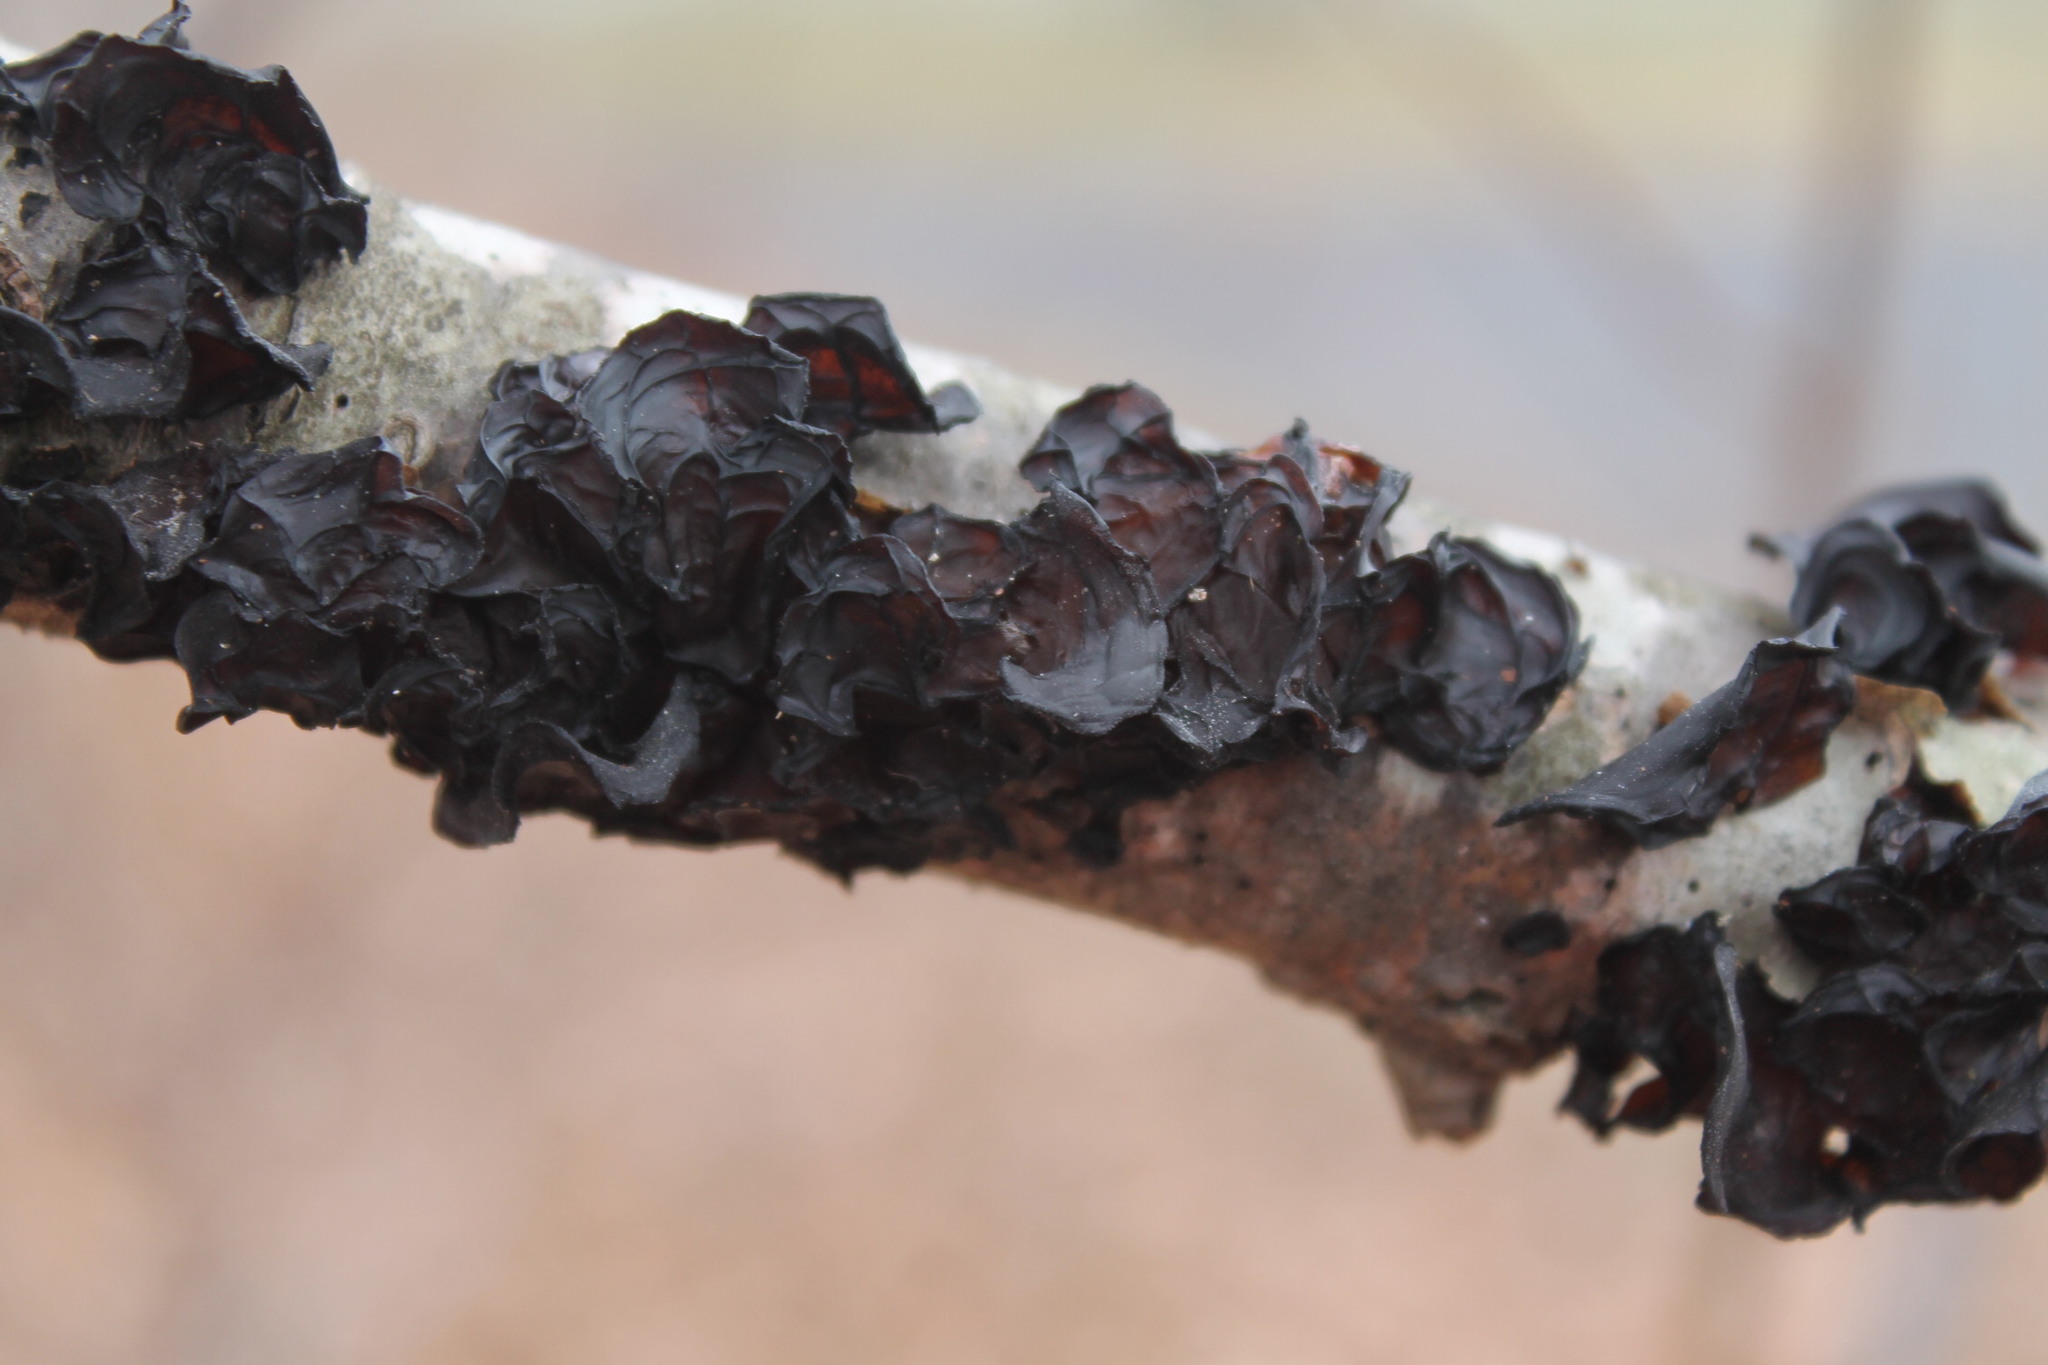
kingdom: Fungi
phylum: Basidiomycota
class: Agaricomycetes
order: Auriculariales
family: Auriculariaceae
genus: Exidia
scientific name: Exidia
